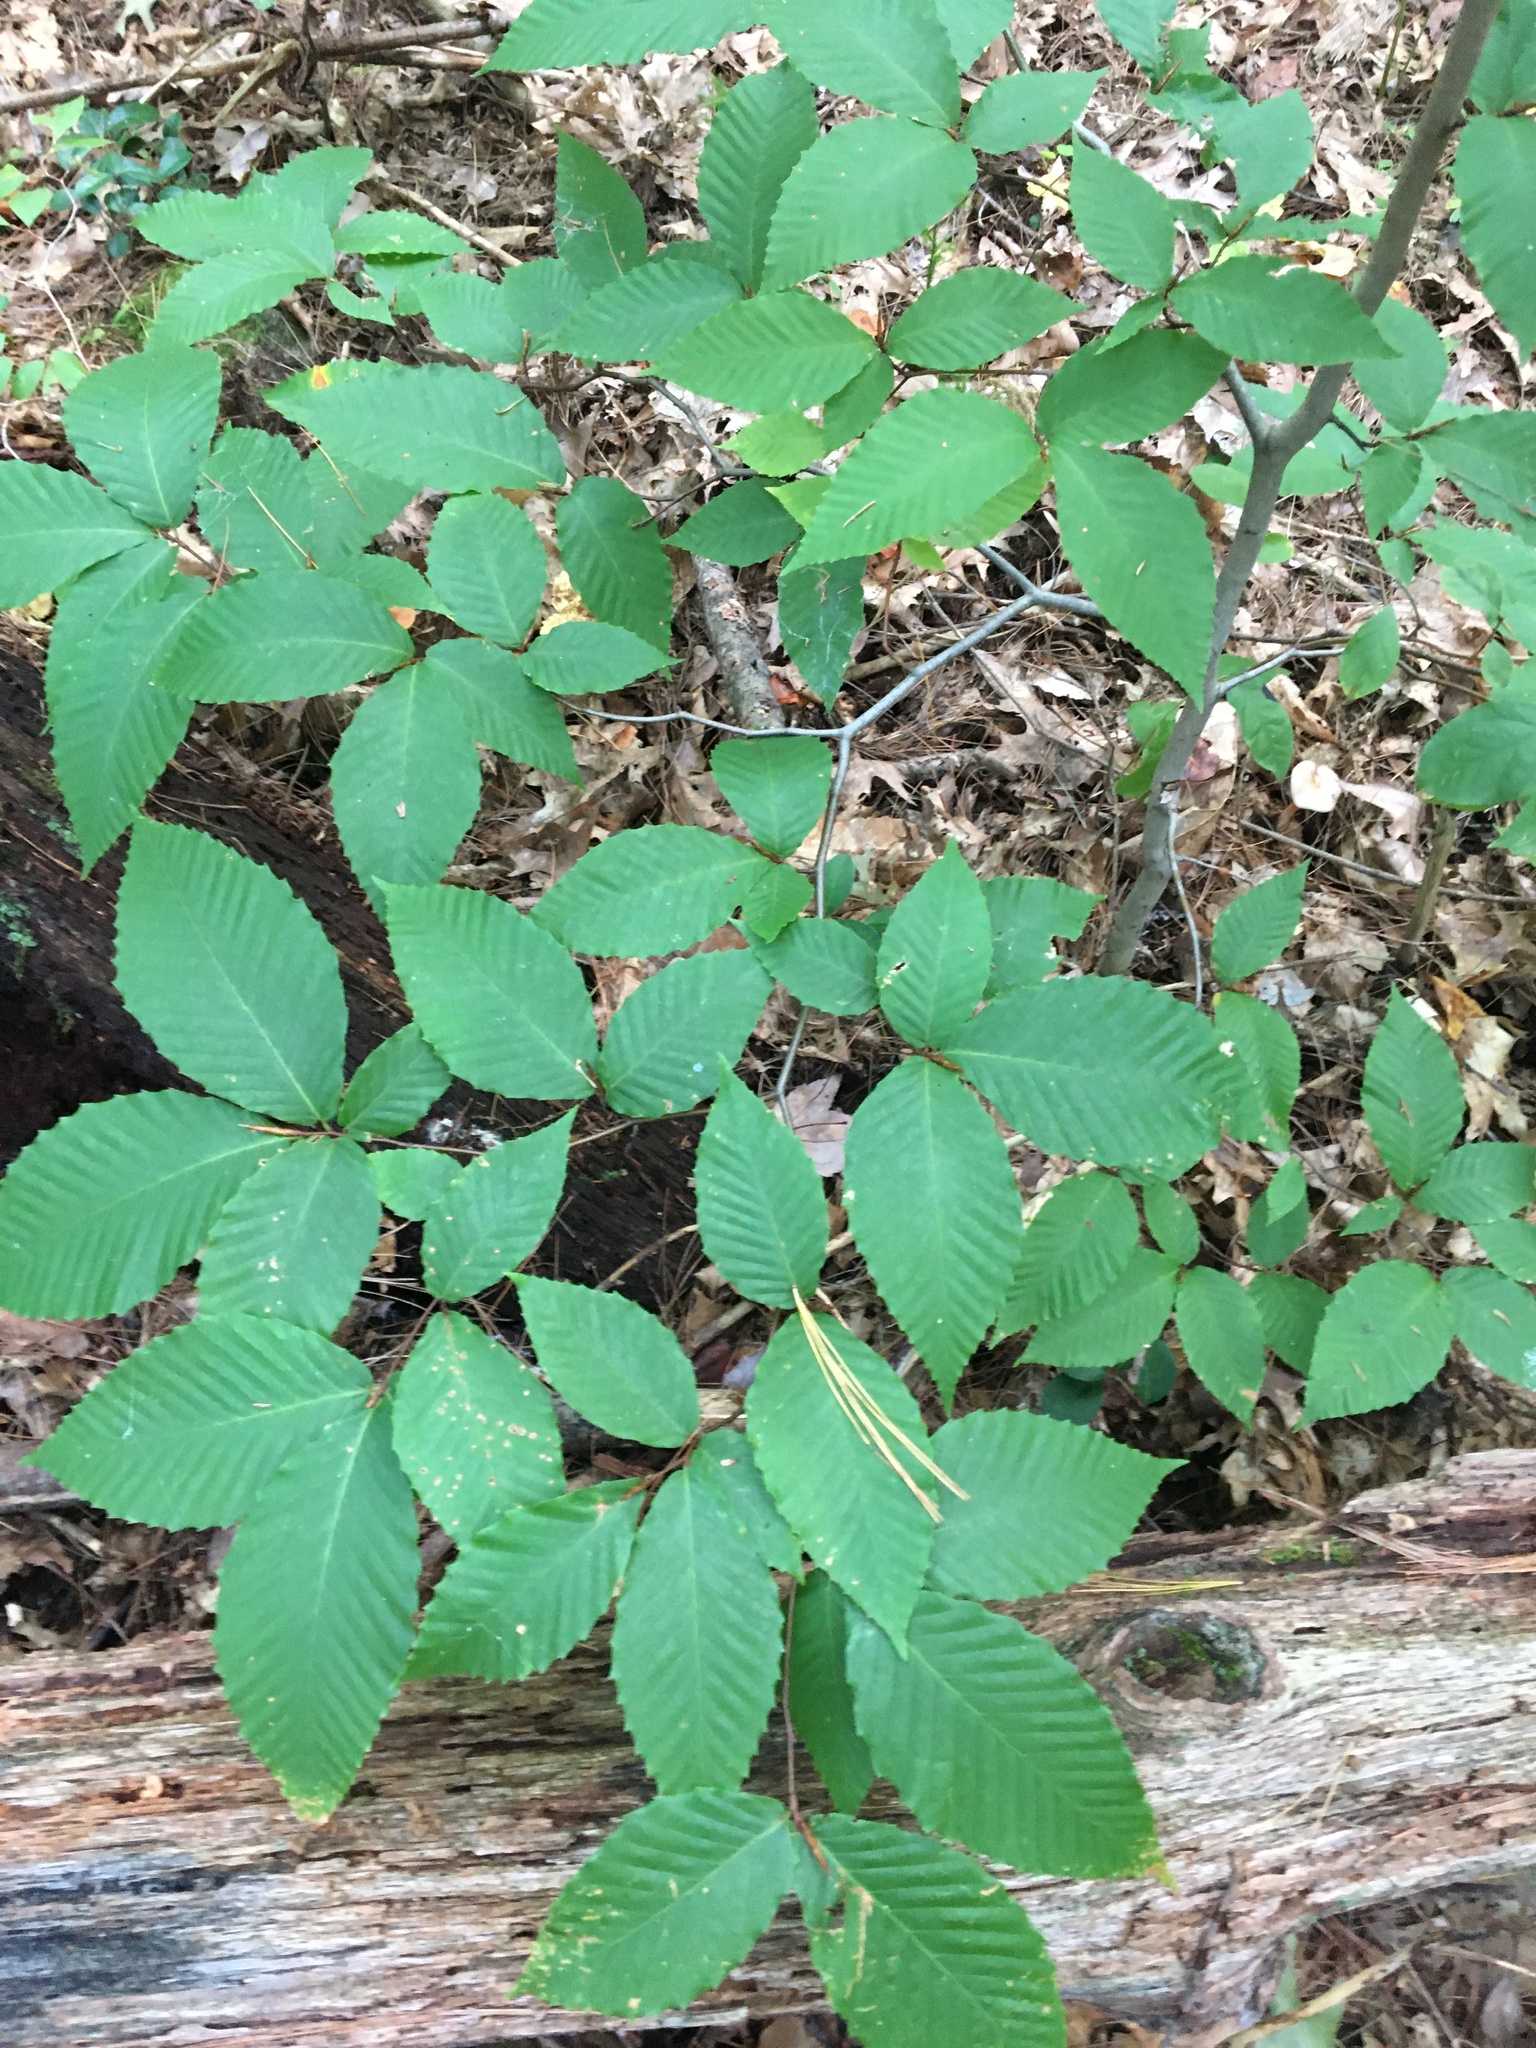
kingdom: Plantae
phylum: Tracheophyta
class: Magnoliopsida
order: Fagales
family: Fagaceae
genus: Fagus
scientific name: Fagus grandifolia
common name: American beech
